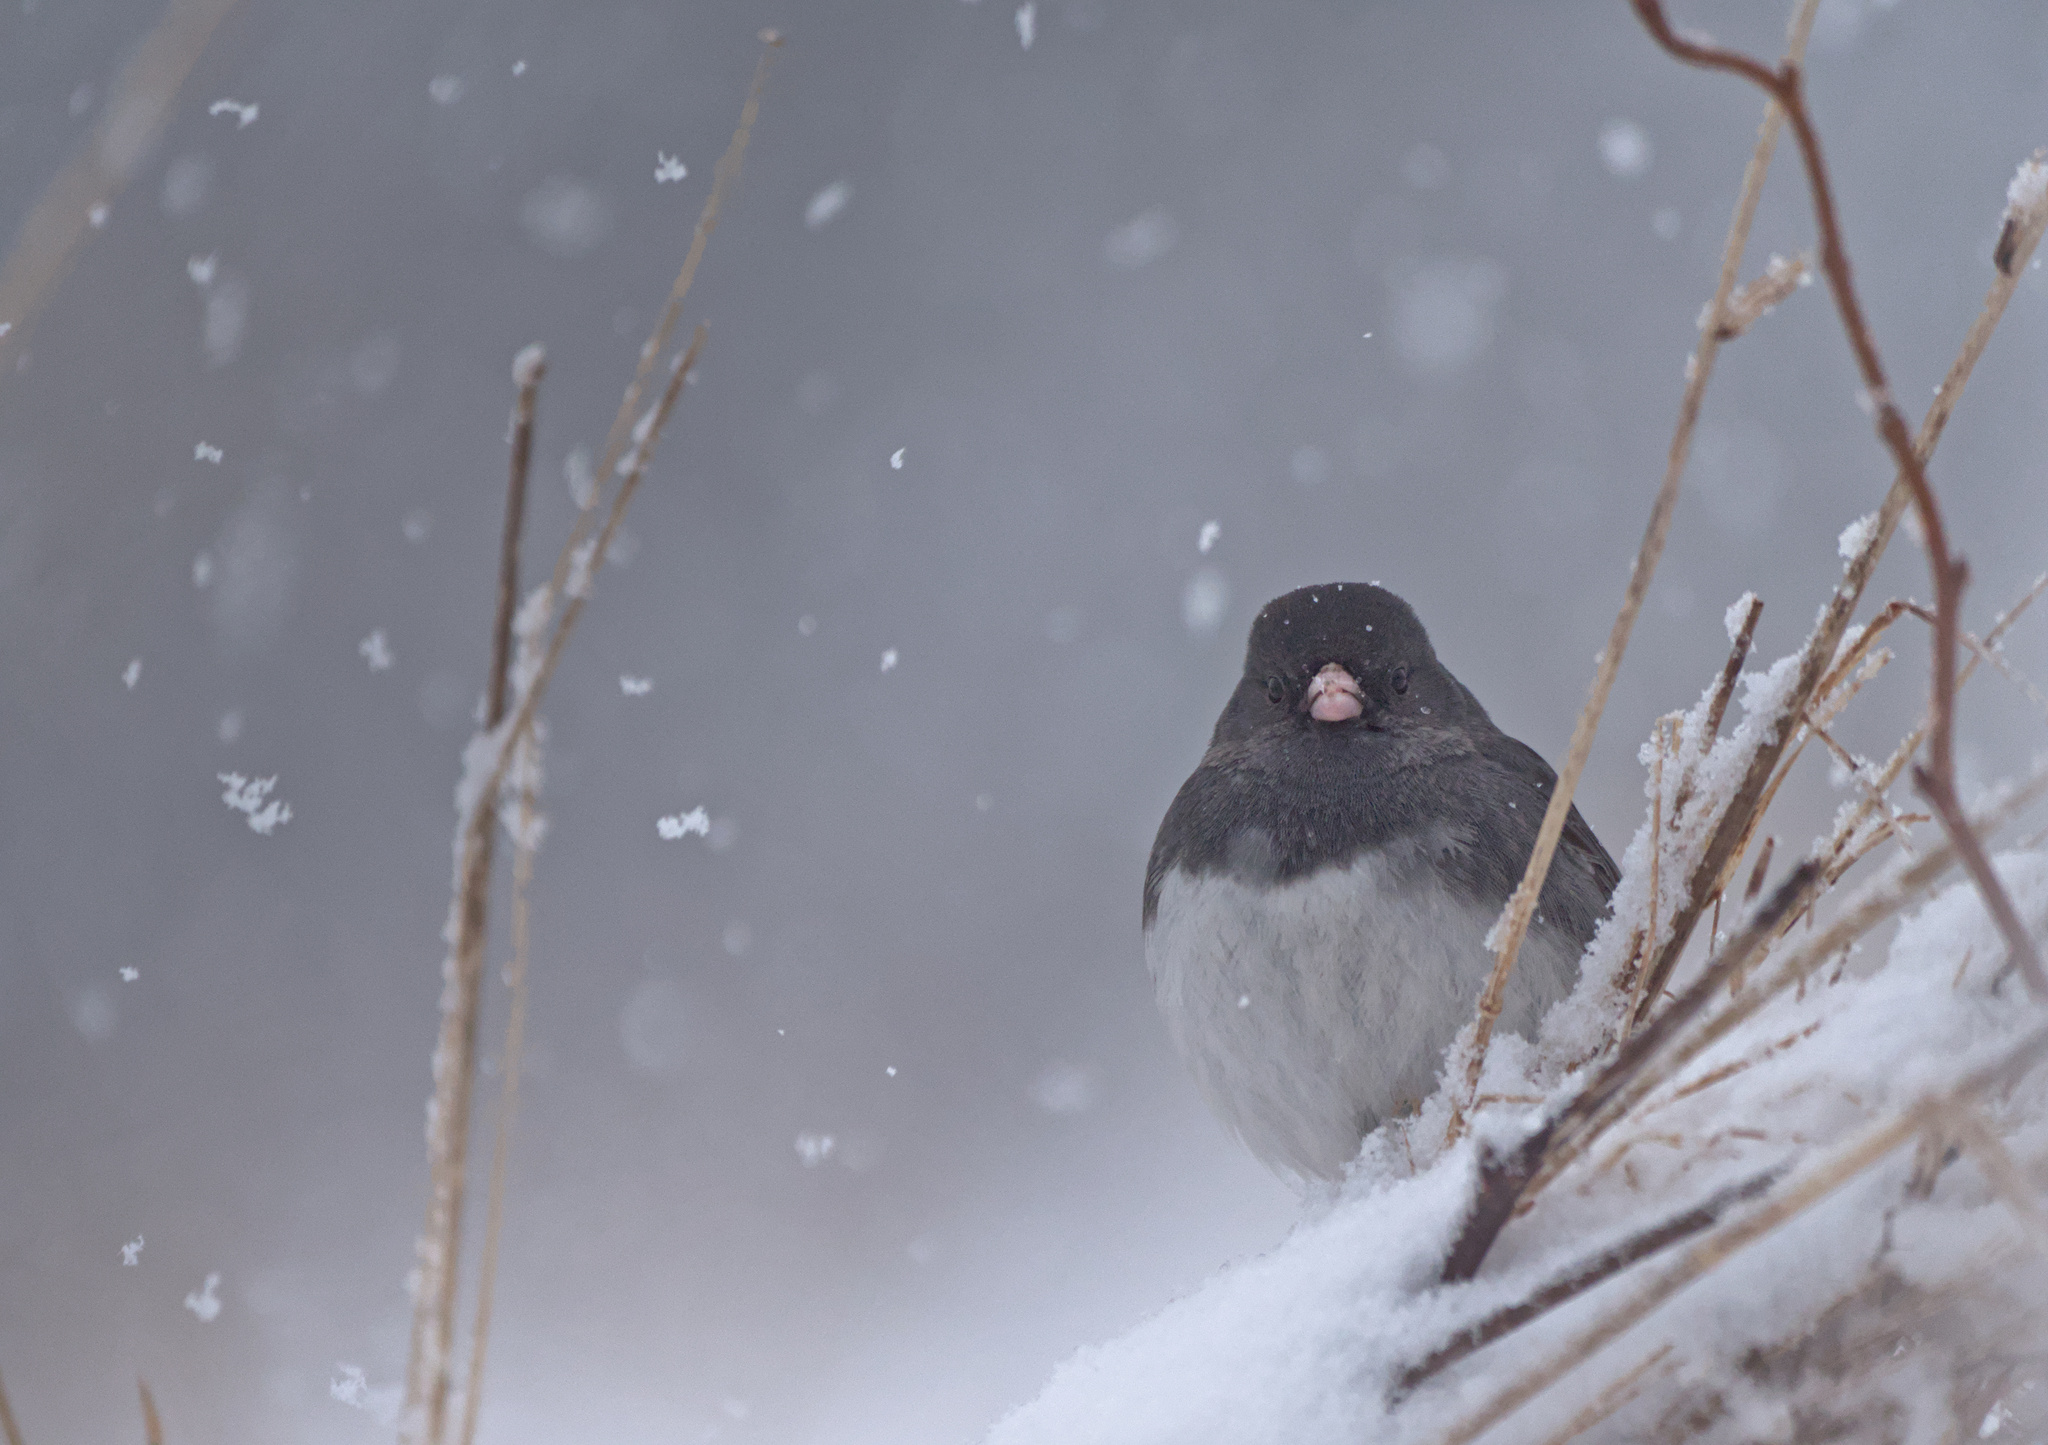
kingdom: Animalia
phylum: Chordata
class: Aves
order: Passeriformes
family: Passerellidae
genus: Junco
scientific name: Junco hyemalis
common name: Dark-eyed junco
